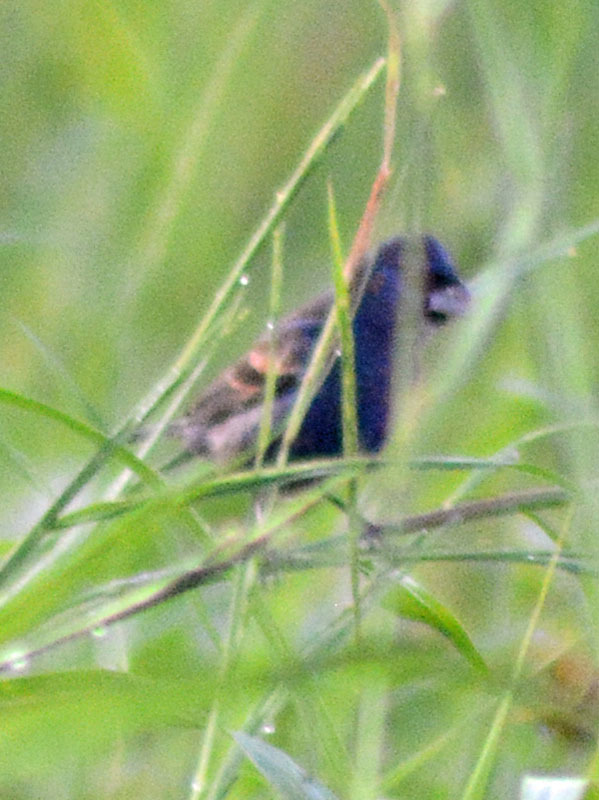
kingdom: Animalia
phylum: Chordata
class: Aves
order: Passeriformes
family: Cardinalidae
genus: Passerina
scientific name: Passerina caerulea
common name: Blue grosbeak
